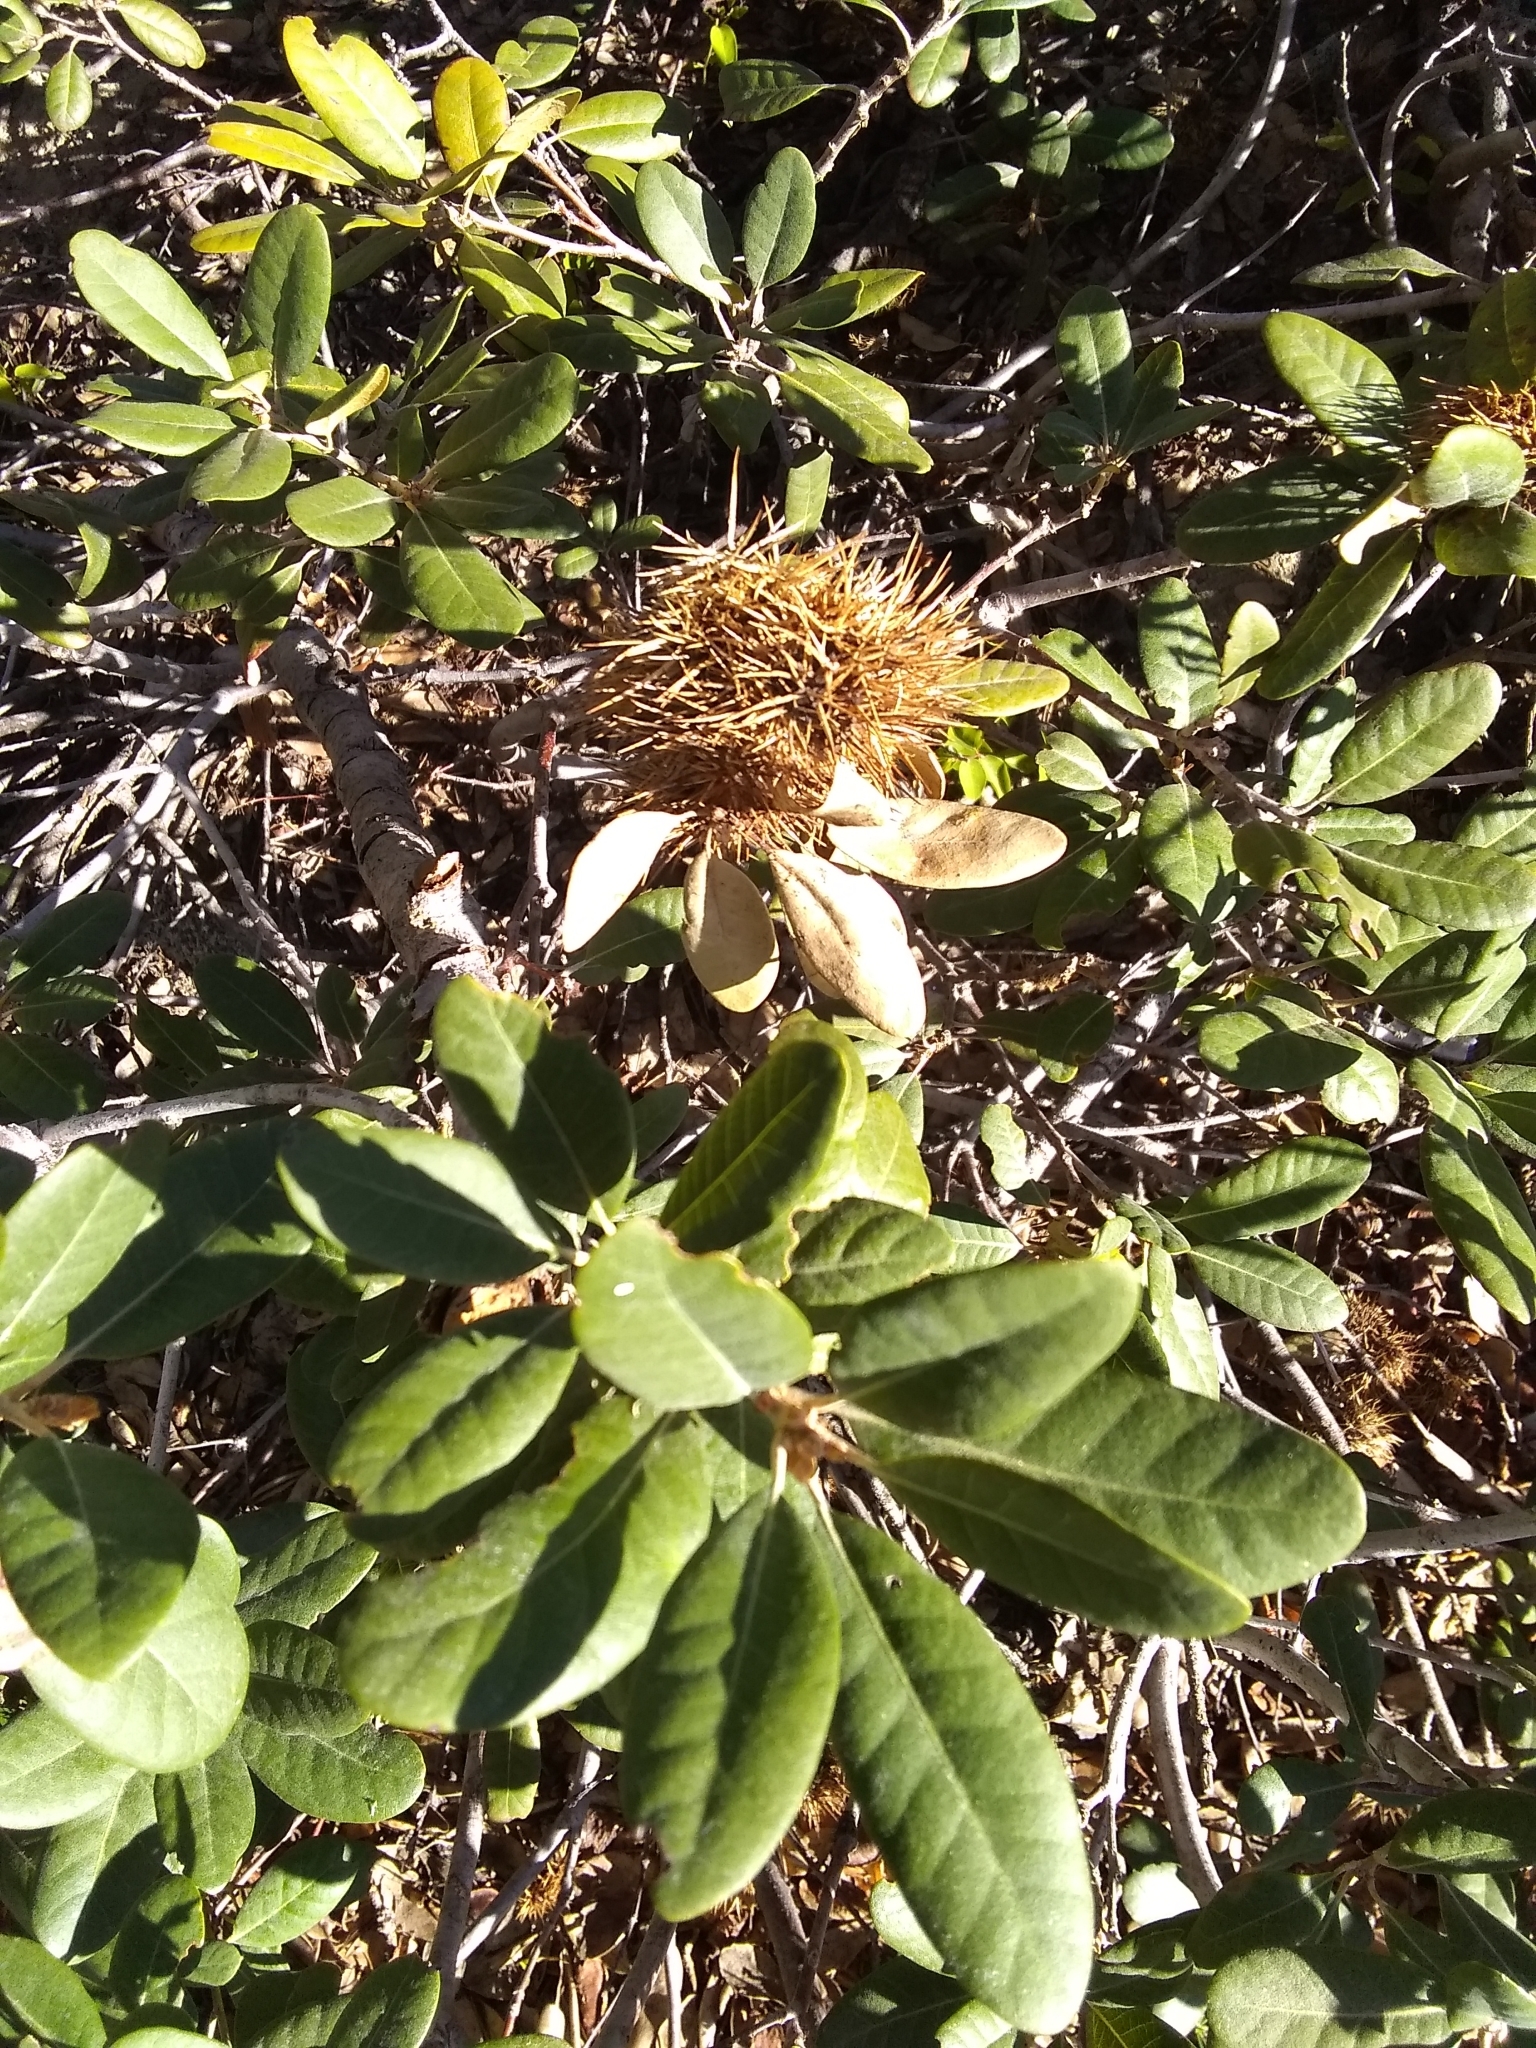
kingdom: Plantae
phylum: Tracheophyta
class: Magnoliopsida
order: Fagales
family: Fagaceae
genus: Chrysolepis
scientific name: Chrysolepis sempervirens
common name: Bush chinquapin
